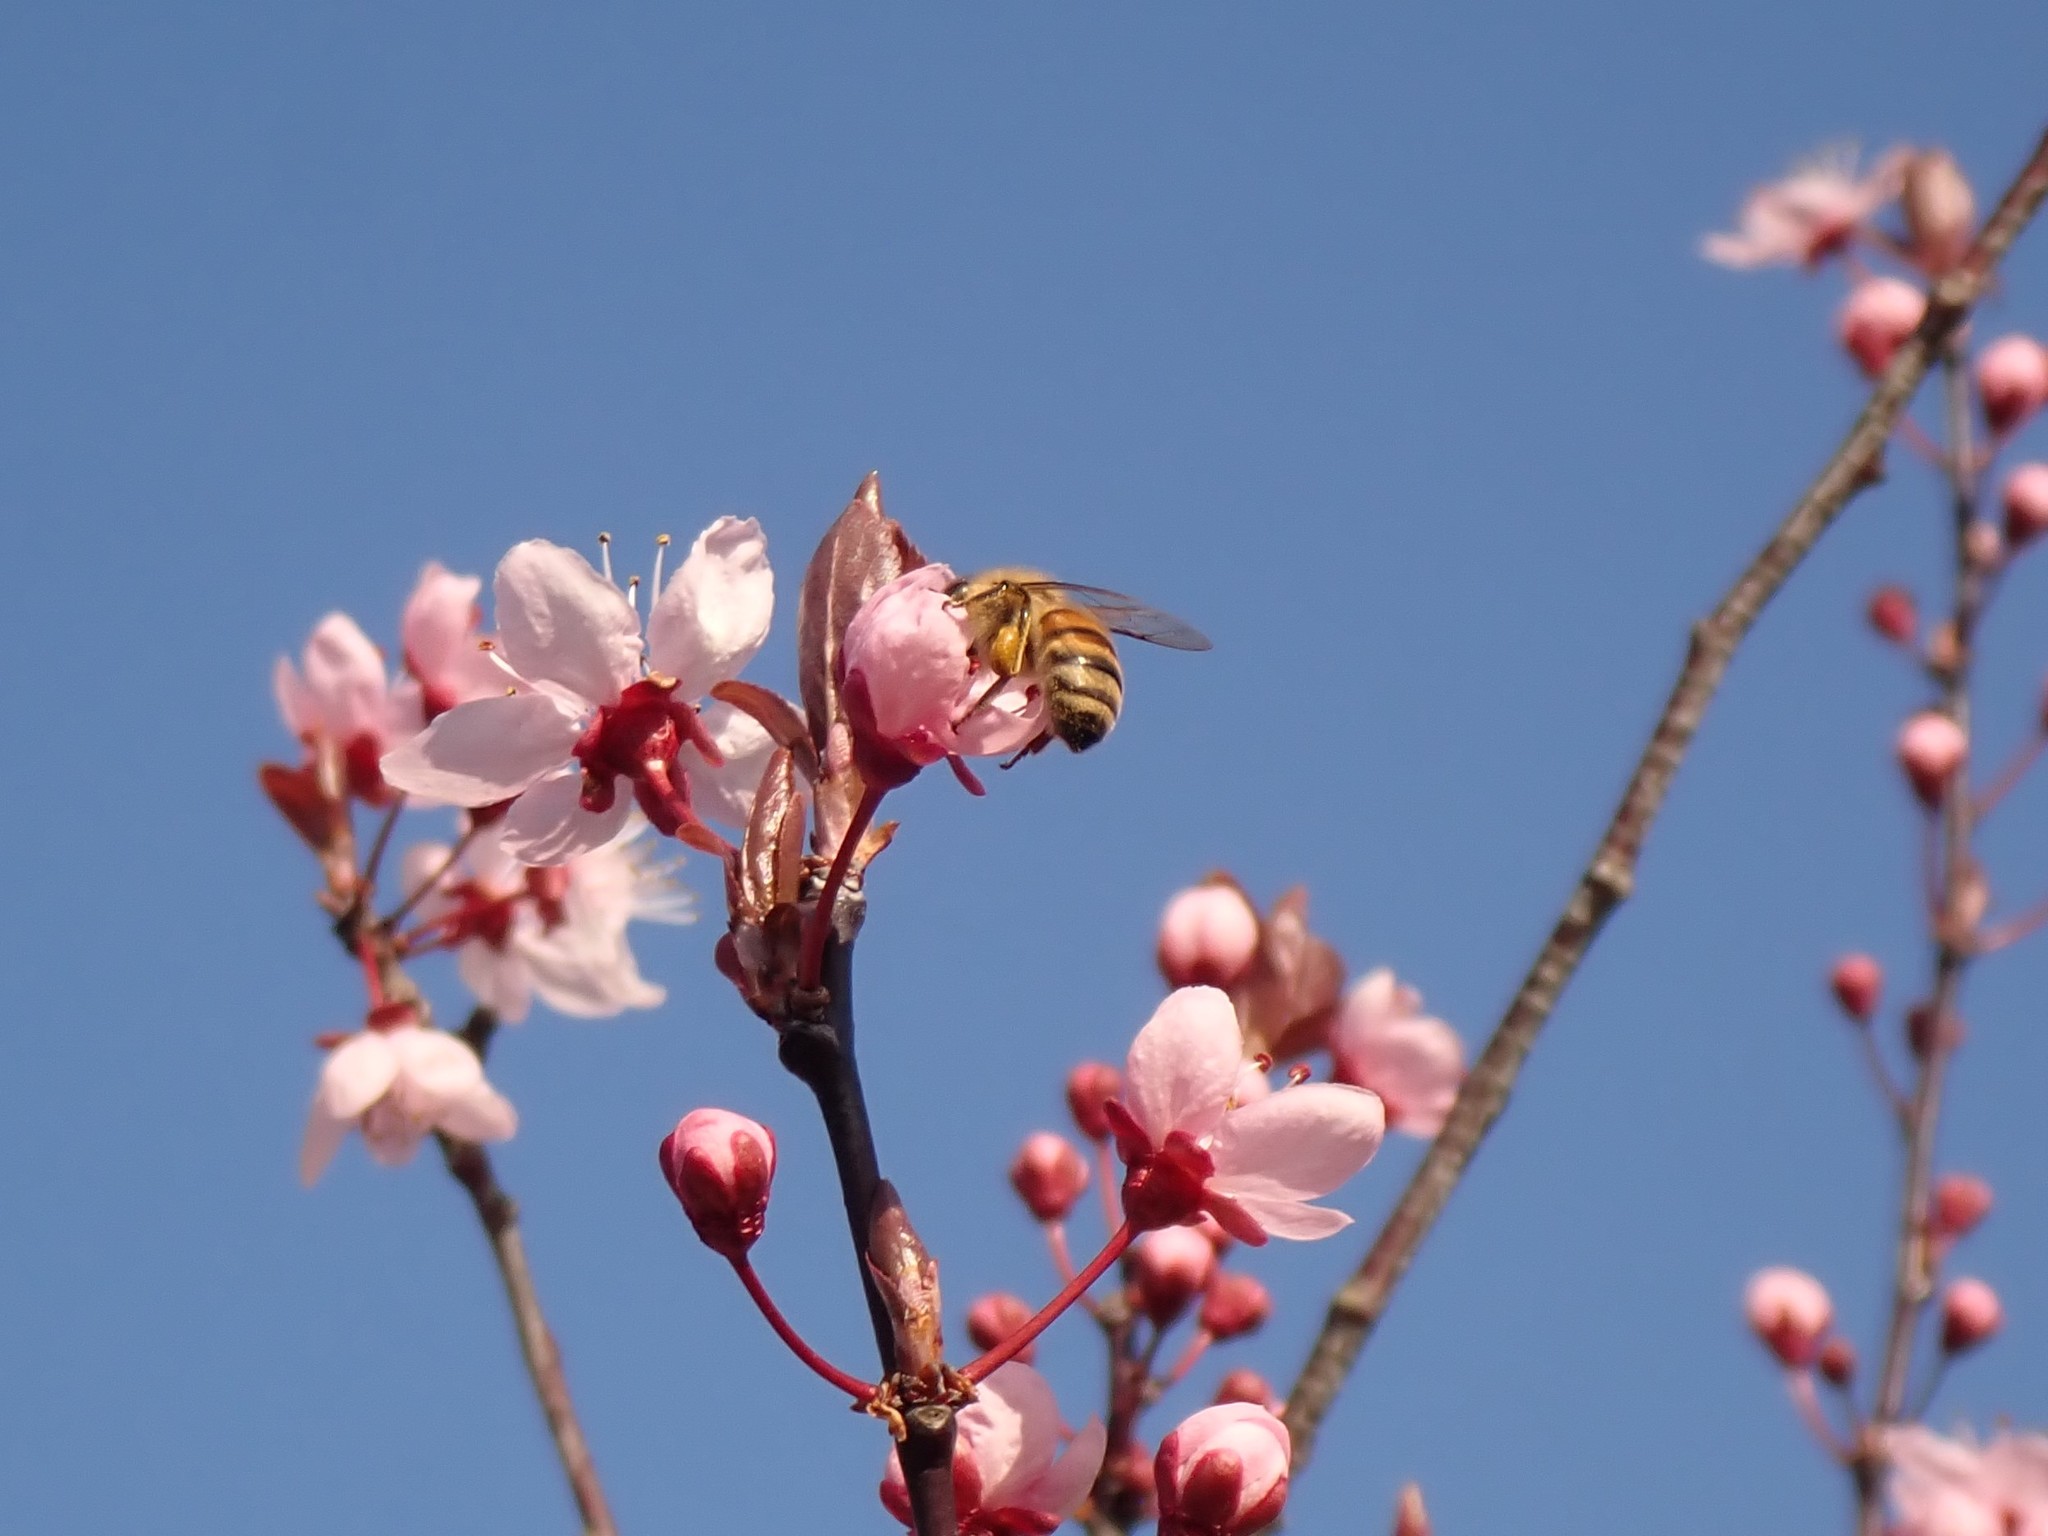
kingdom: Animalia
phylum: Arthropoda
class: Insecta
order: Hymenoptera
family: Apidae
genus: Apis
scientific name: Apis mellifera
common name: Honey bee
